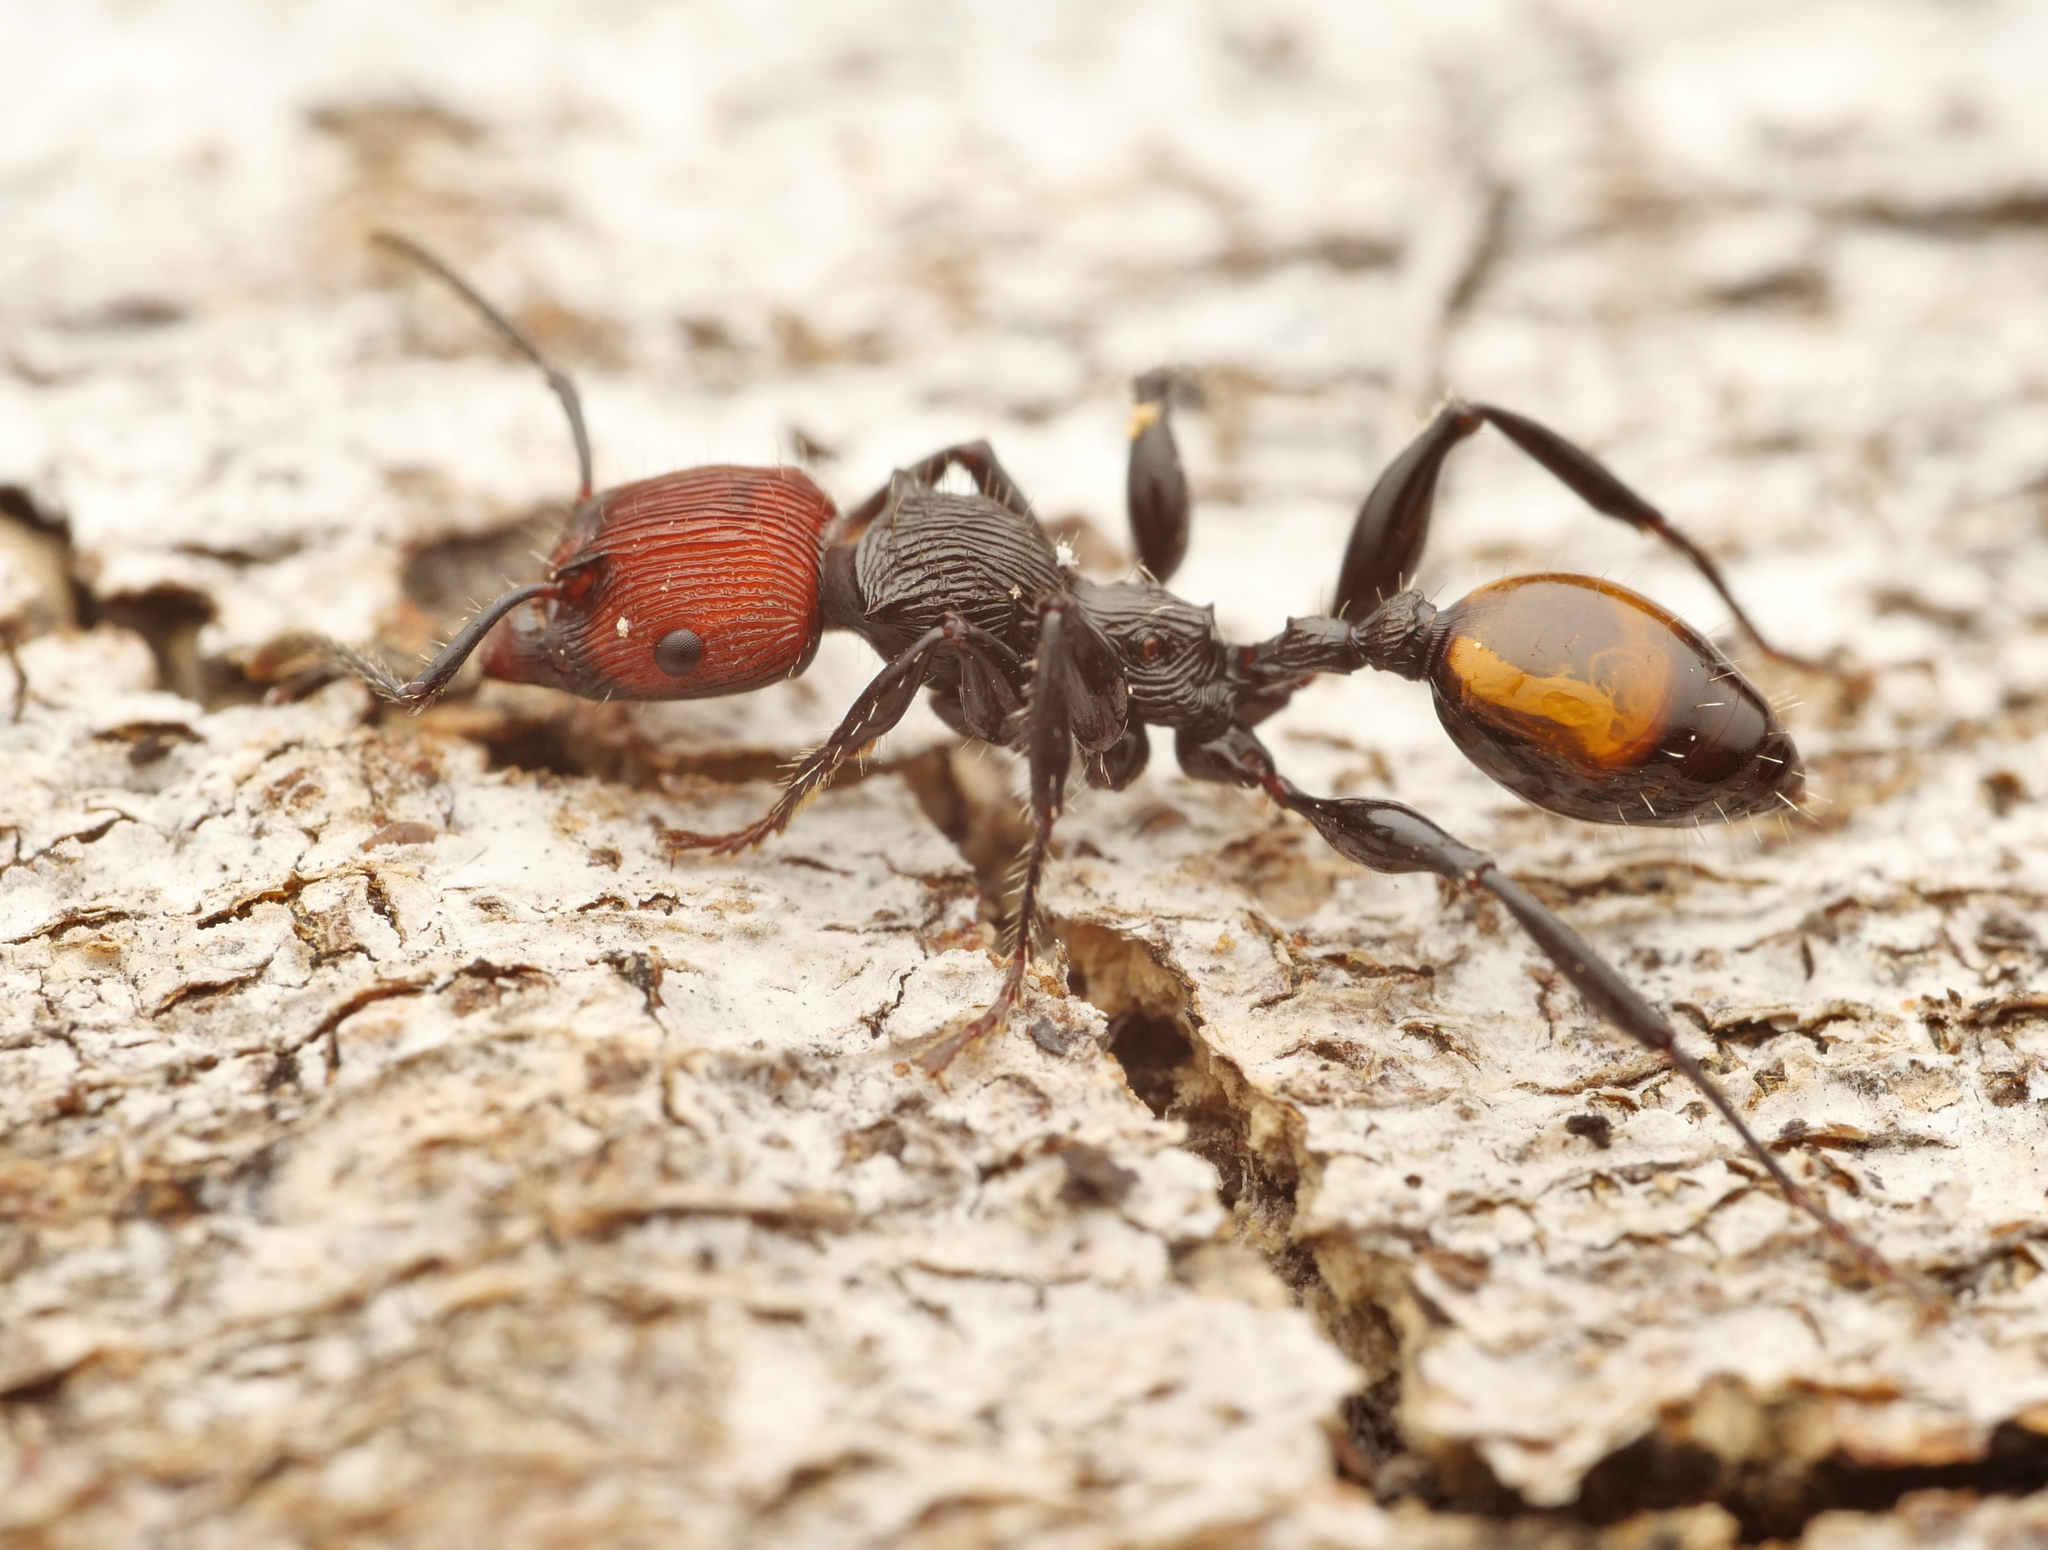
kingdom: Animalia
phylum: Arthropoda
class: Insecta
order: Hymenoptera
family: Formicidae
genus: Podomyrma
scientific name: Podomyrma
